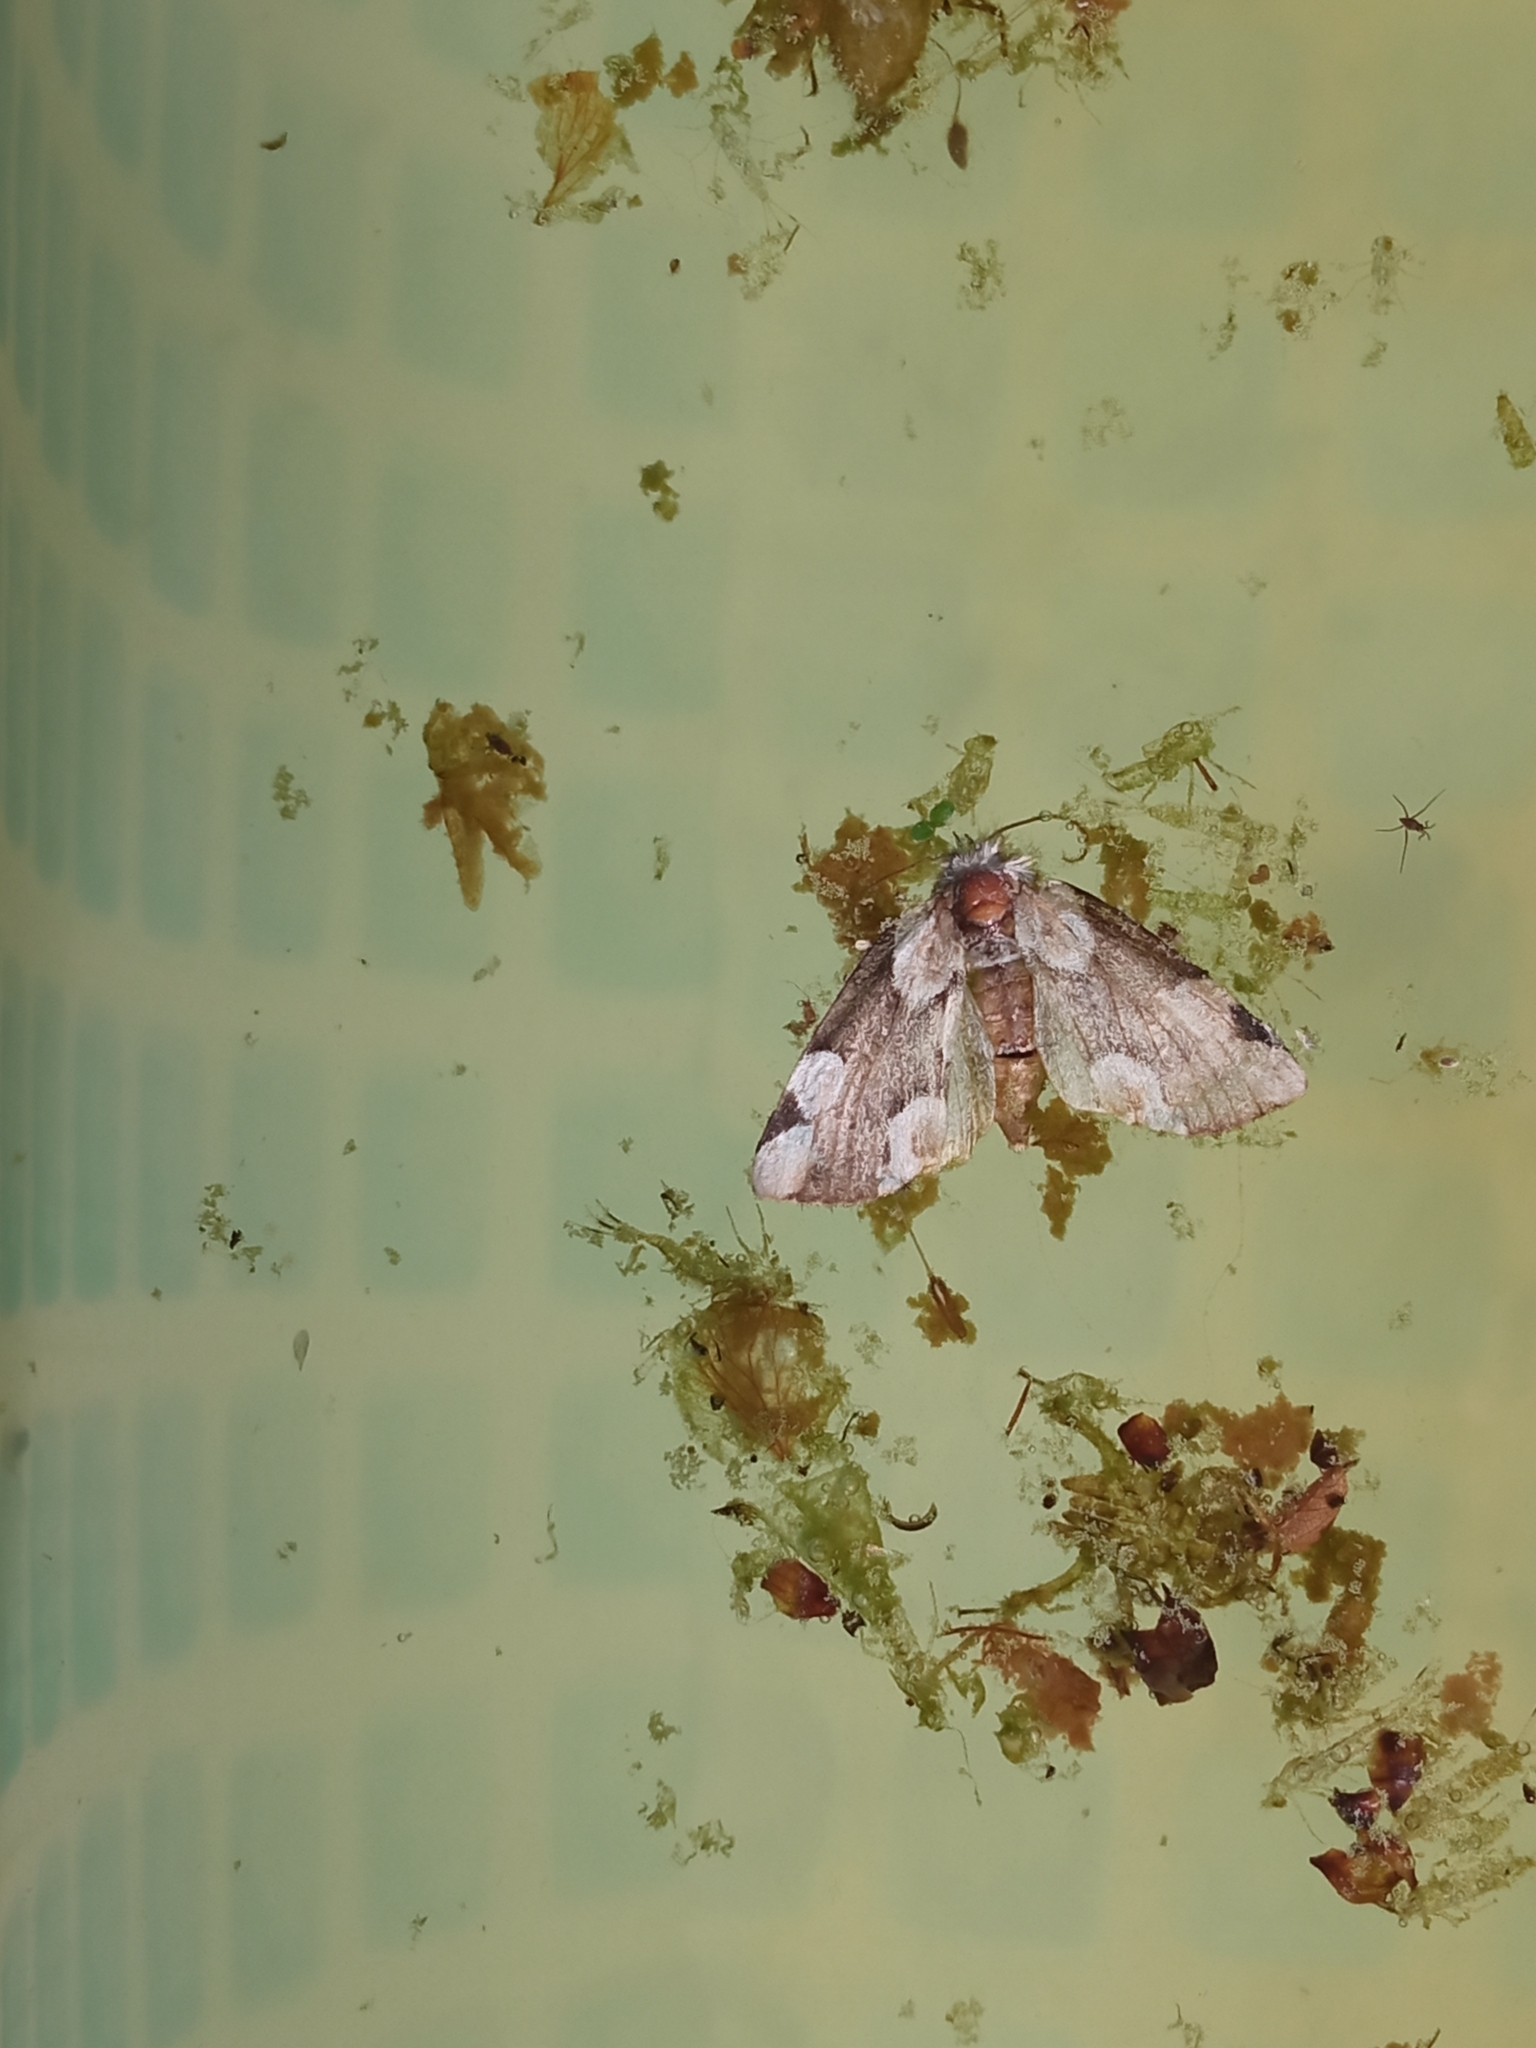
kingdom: Animalia
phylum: Arthropoda
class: Insecta
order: Lepidoptera
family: Drepanidae
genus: Thyatira
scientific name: Thyatira batis
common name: Peach blossom
